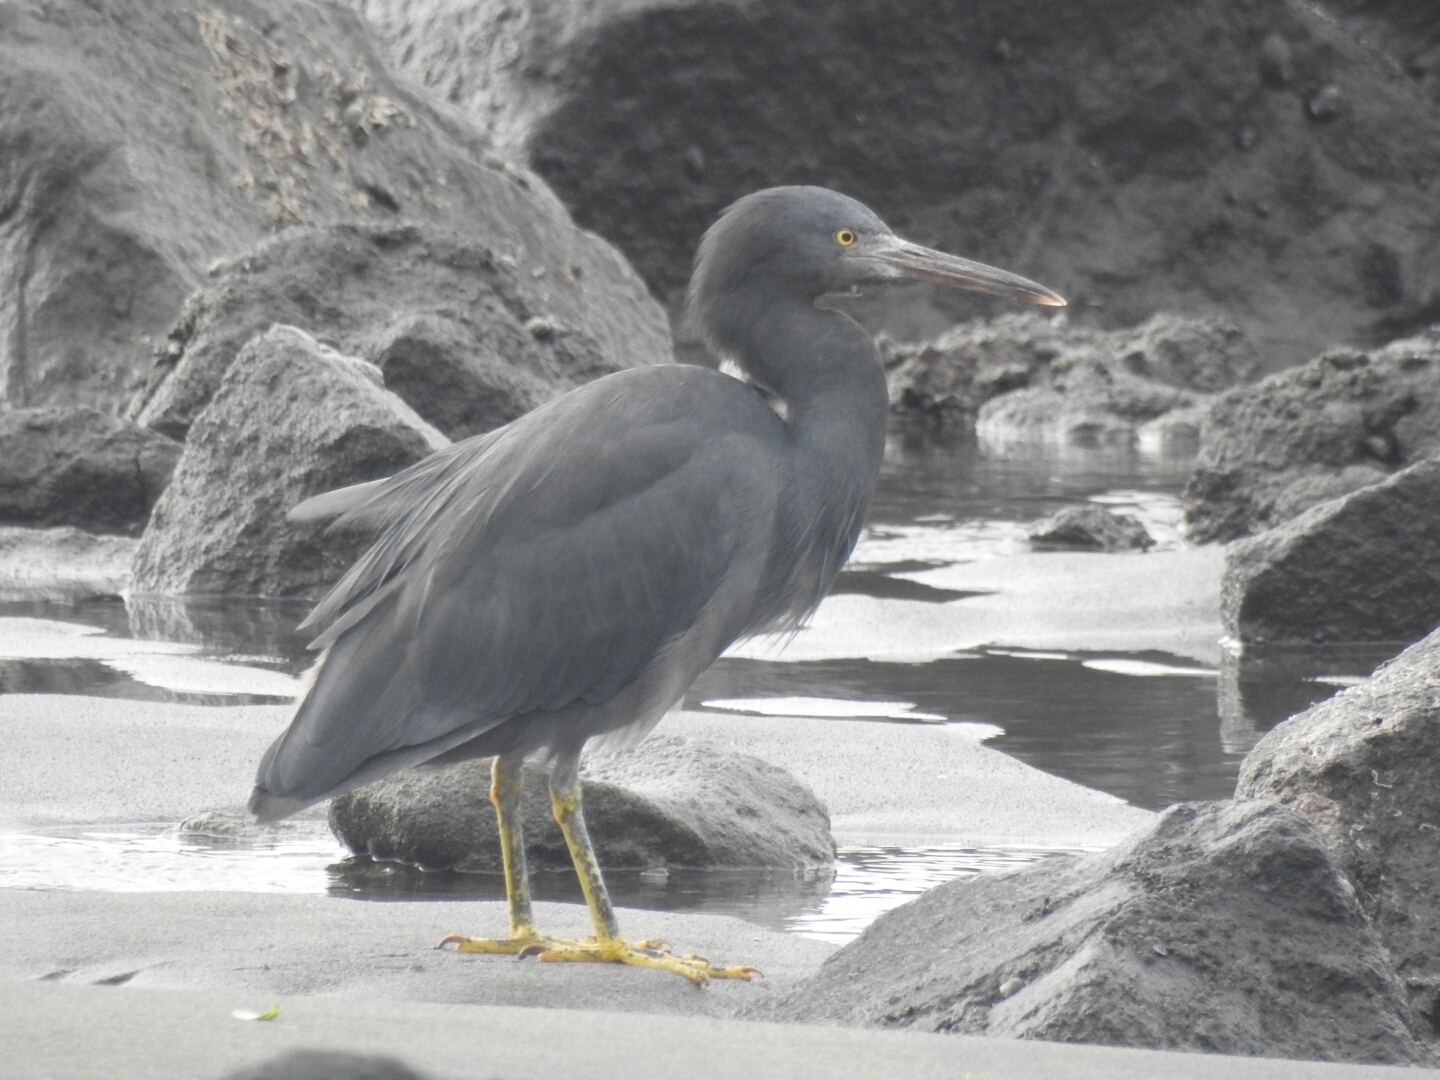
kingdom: Animalia
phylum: Chordata
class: Aves
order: Pelecaniformes
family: Ardeidae
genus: Egretta
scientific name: Egretta sacra
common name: Pacific reef heron
